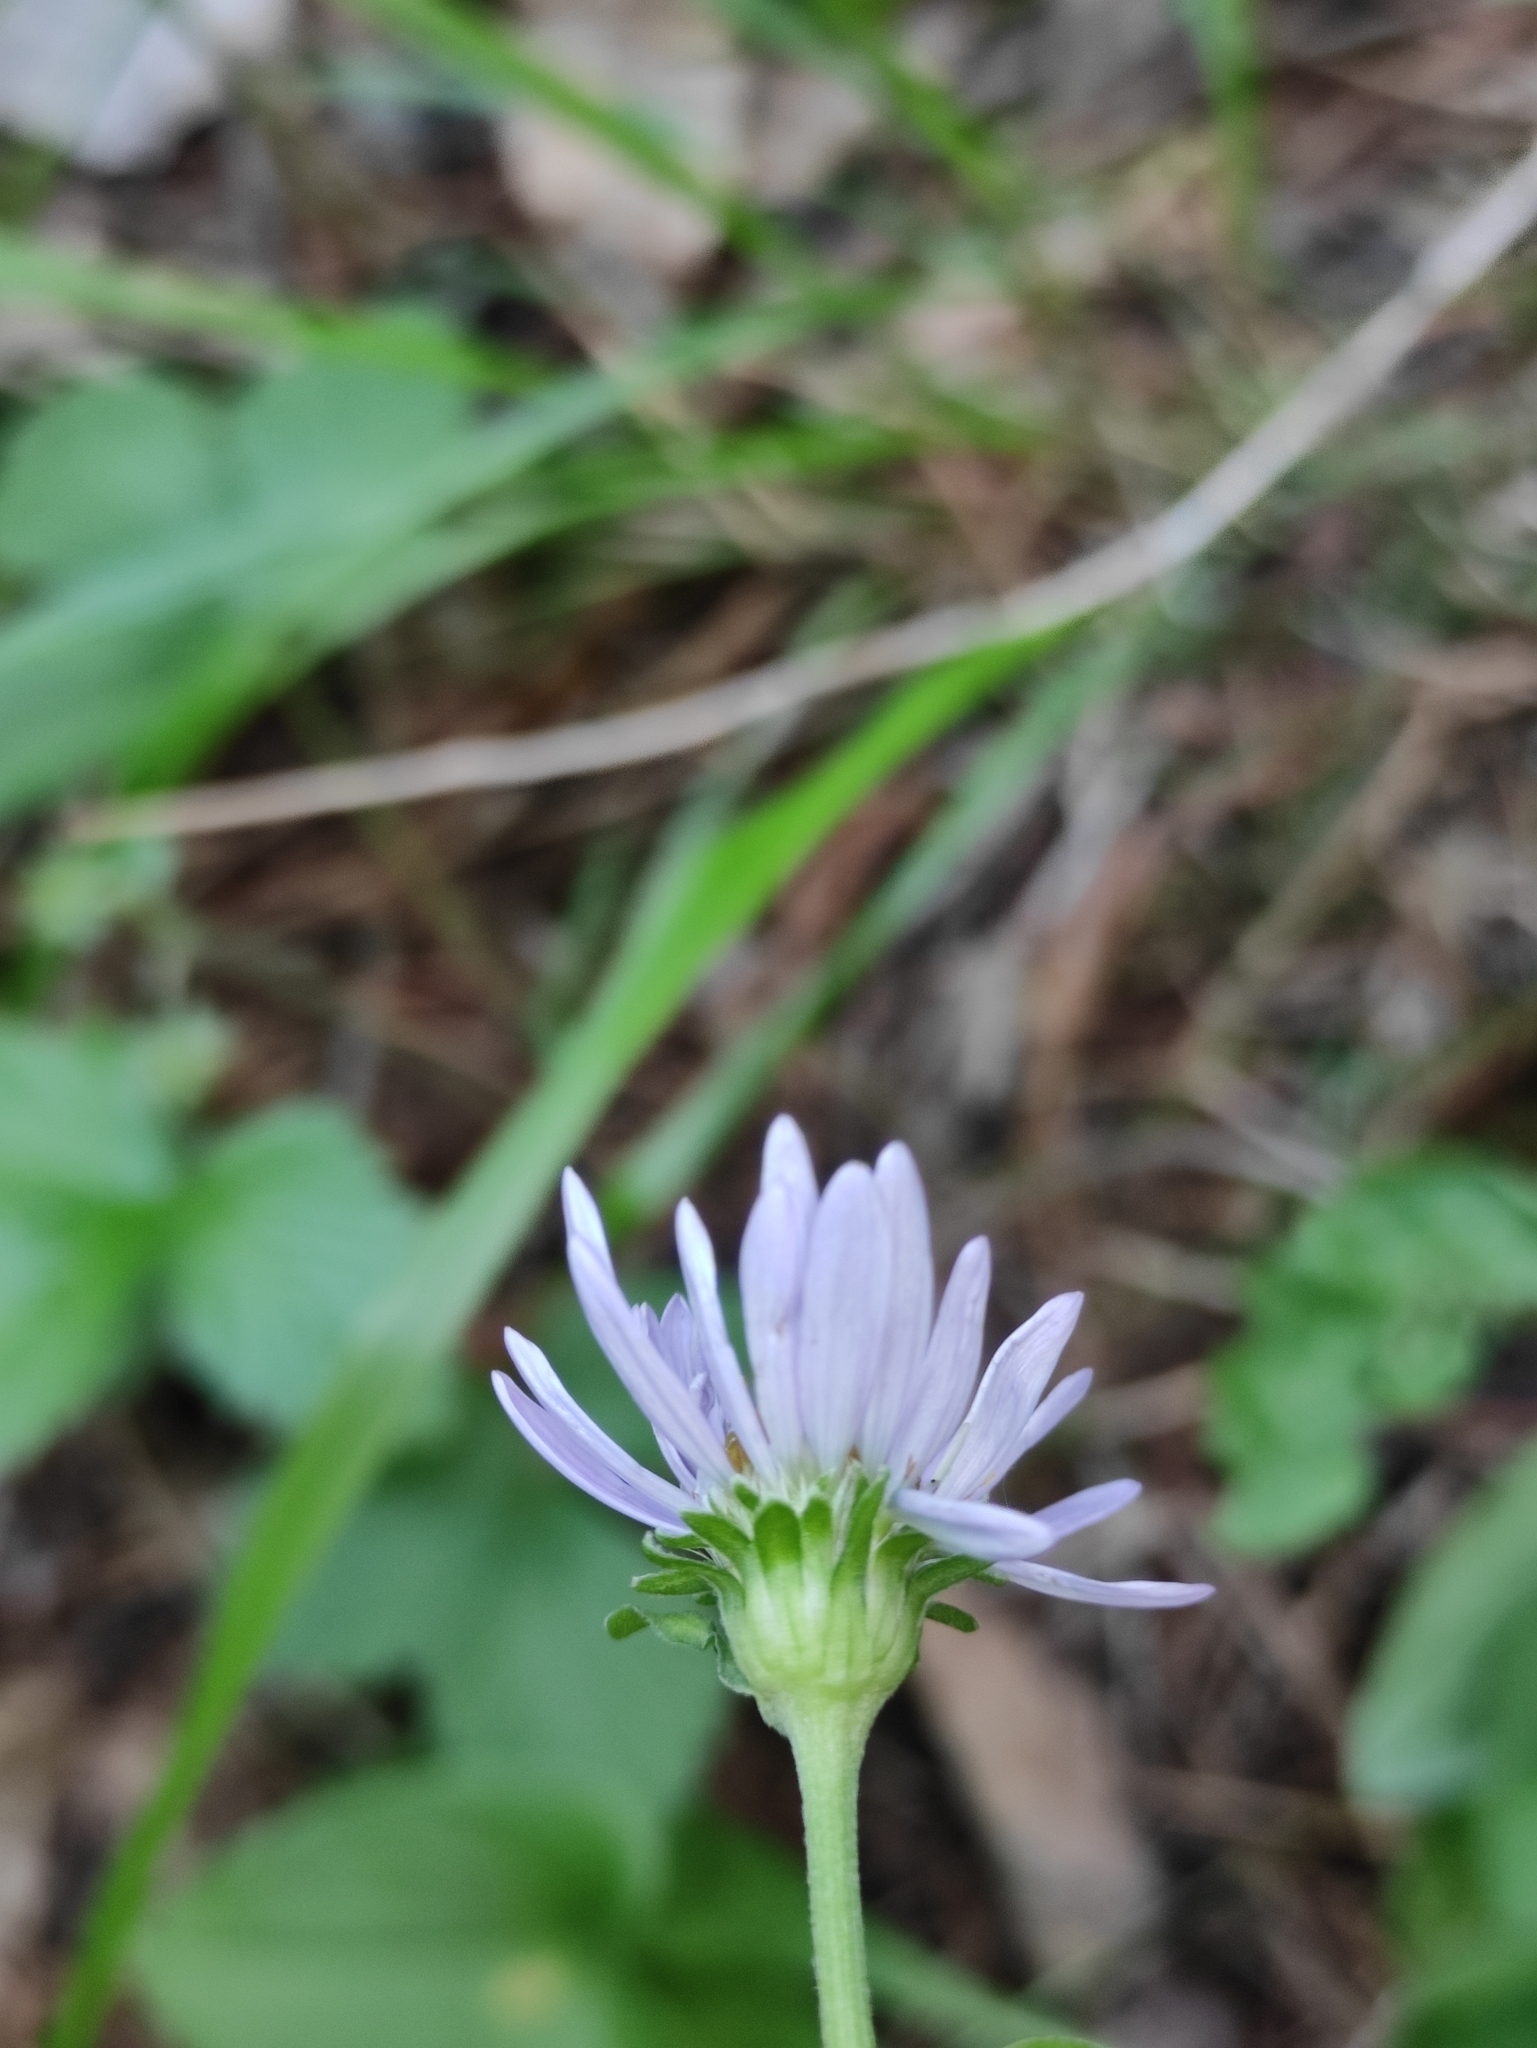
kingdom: Plantae
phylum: Tracheophyta
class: Magnoliopsida
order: Asterales
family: Asteraceae
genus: Aster
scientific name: Aster alpinus
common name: Alpine aster
